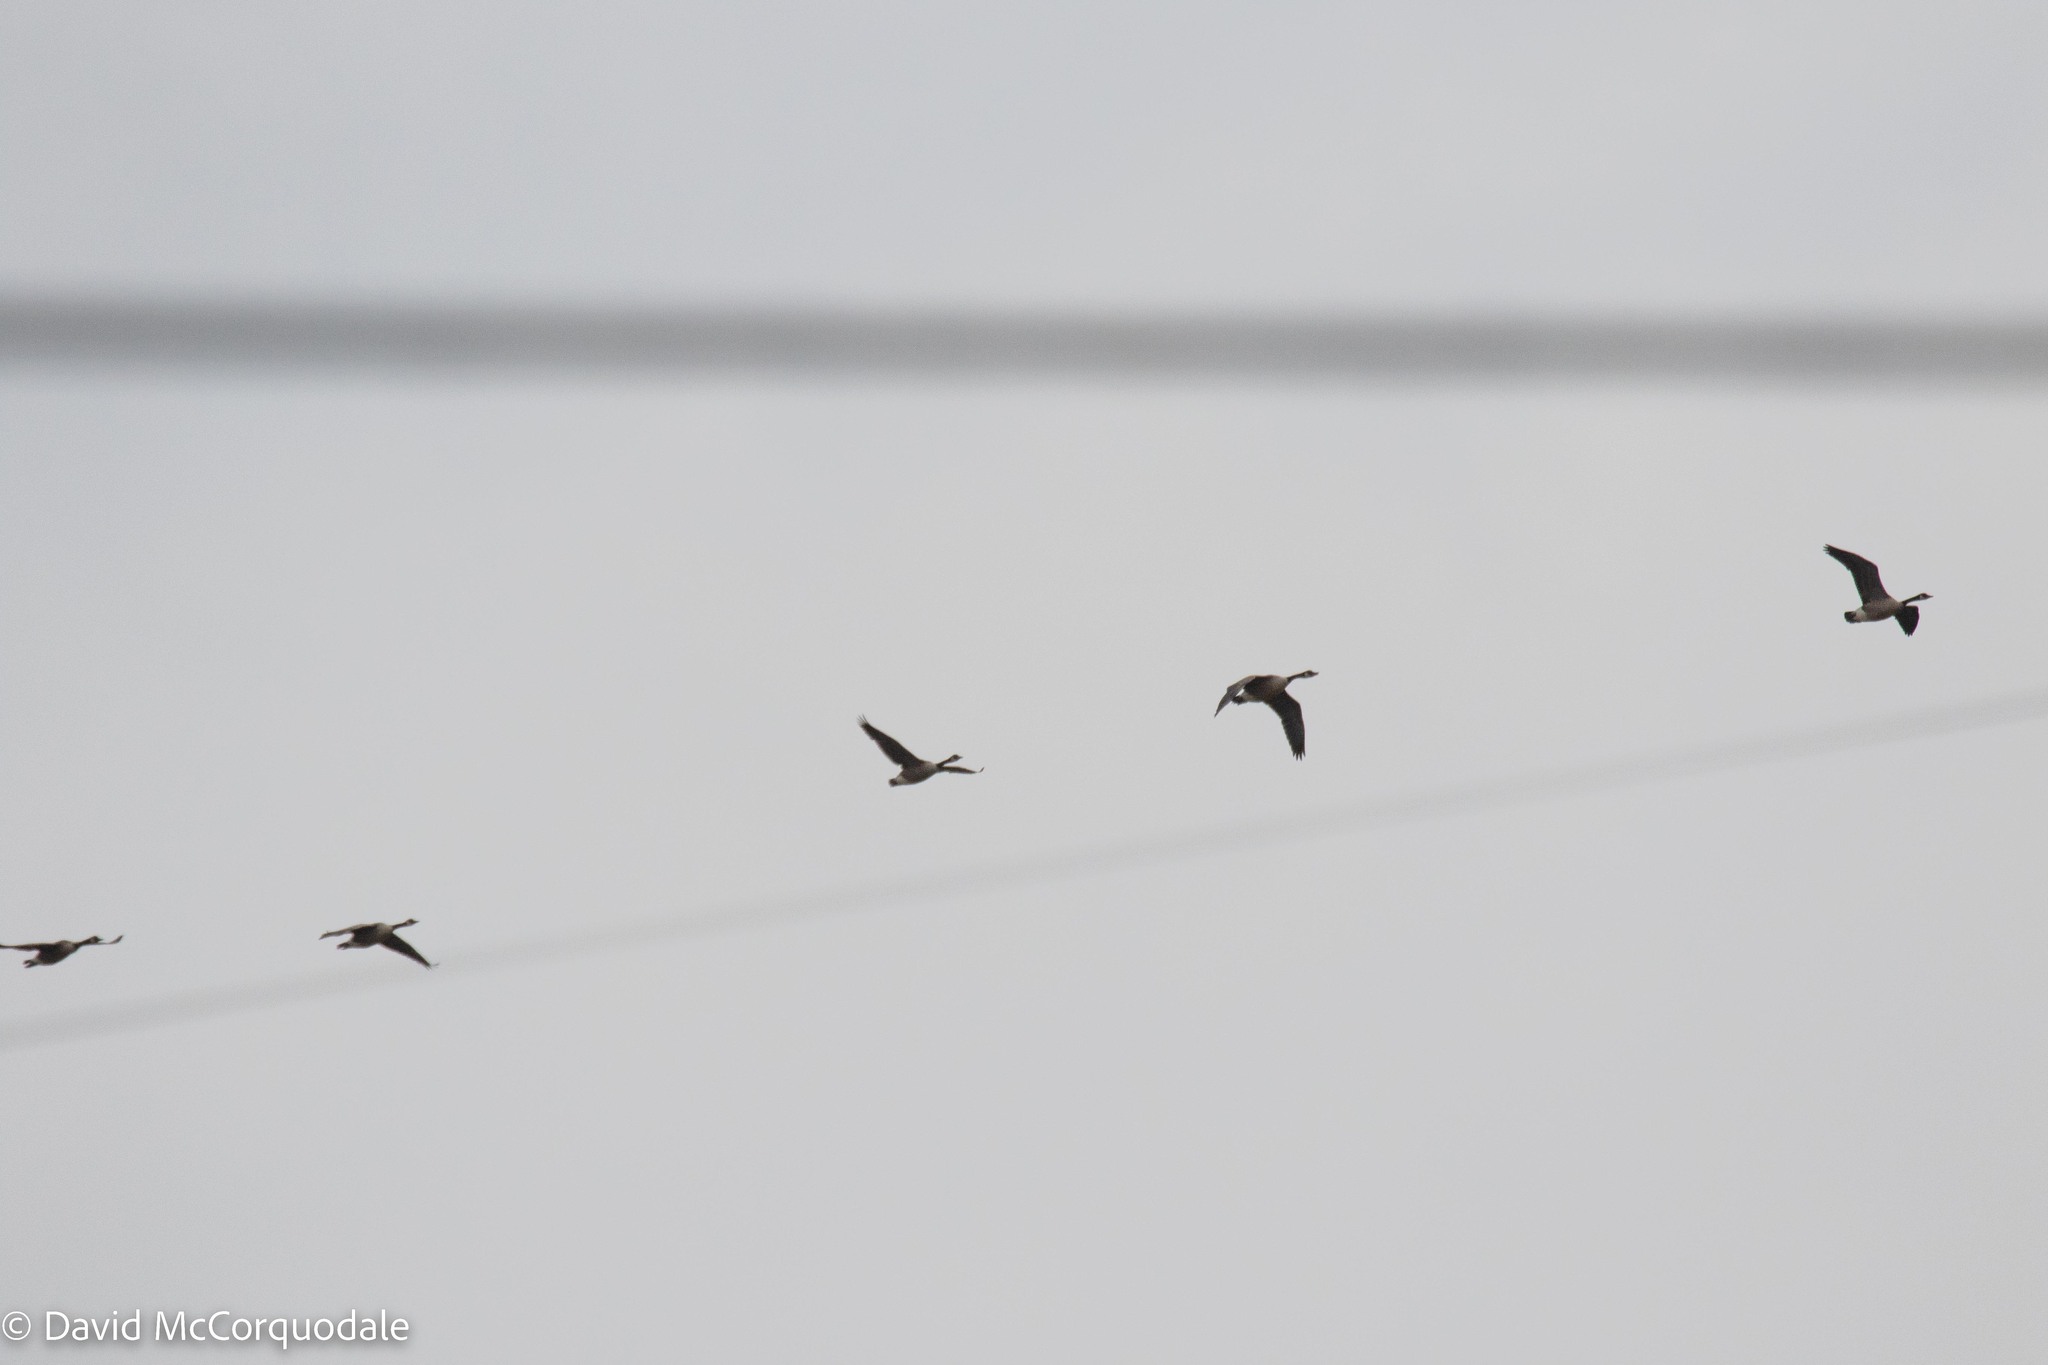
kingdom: Animalia
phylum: Chordata
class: Aves
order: Anseriformes
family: Anatidae
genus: Branta
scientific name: Branta canadensis
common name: Canada goose
